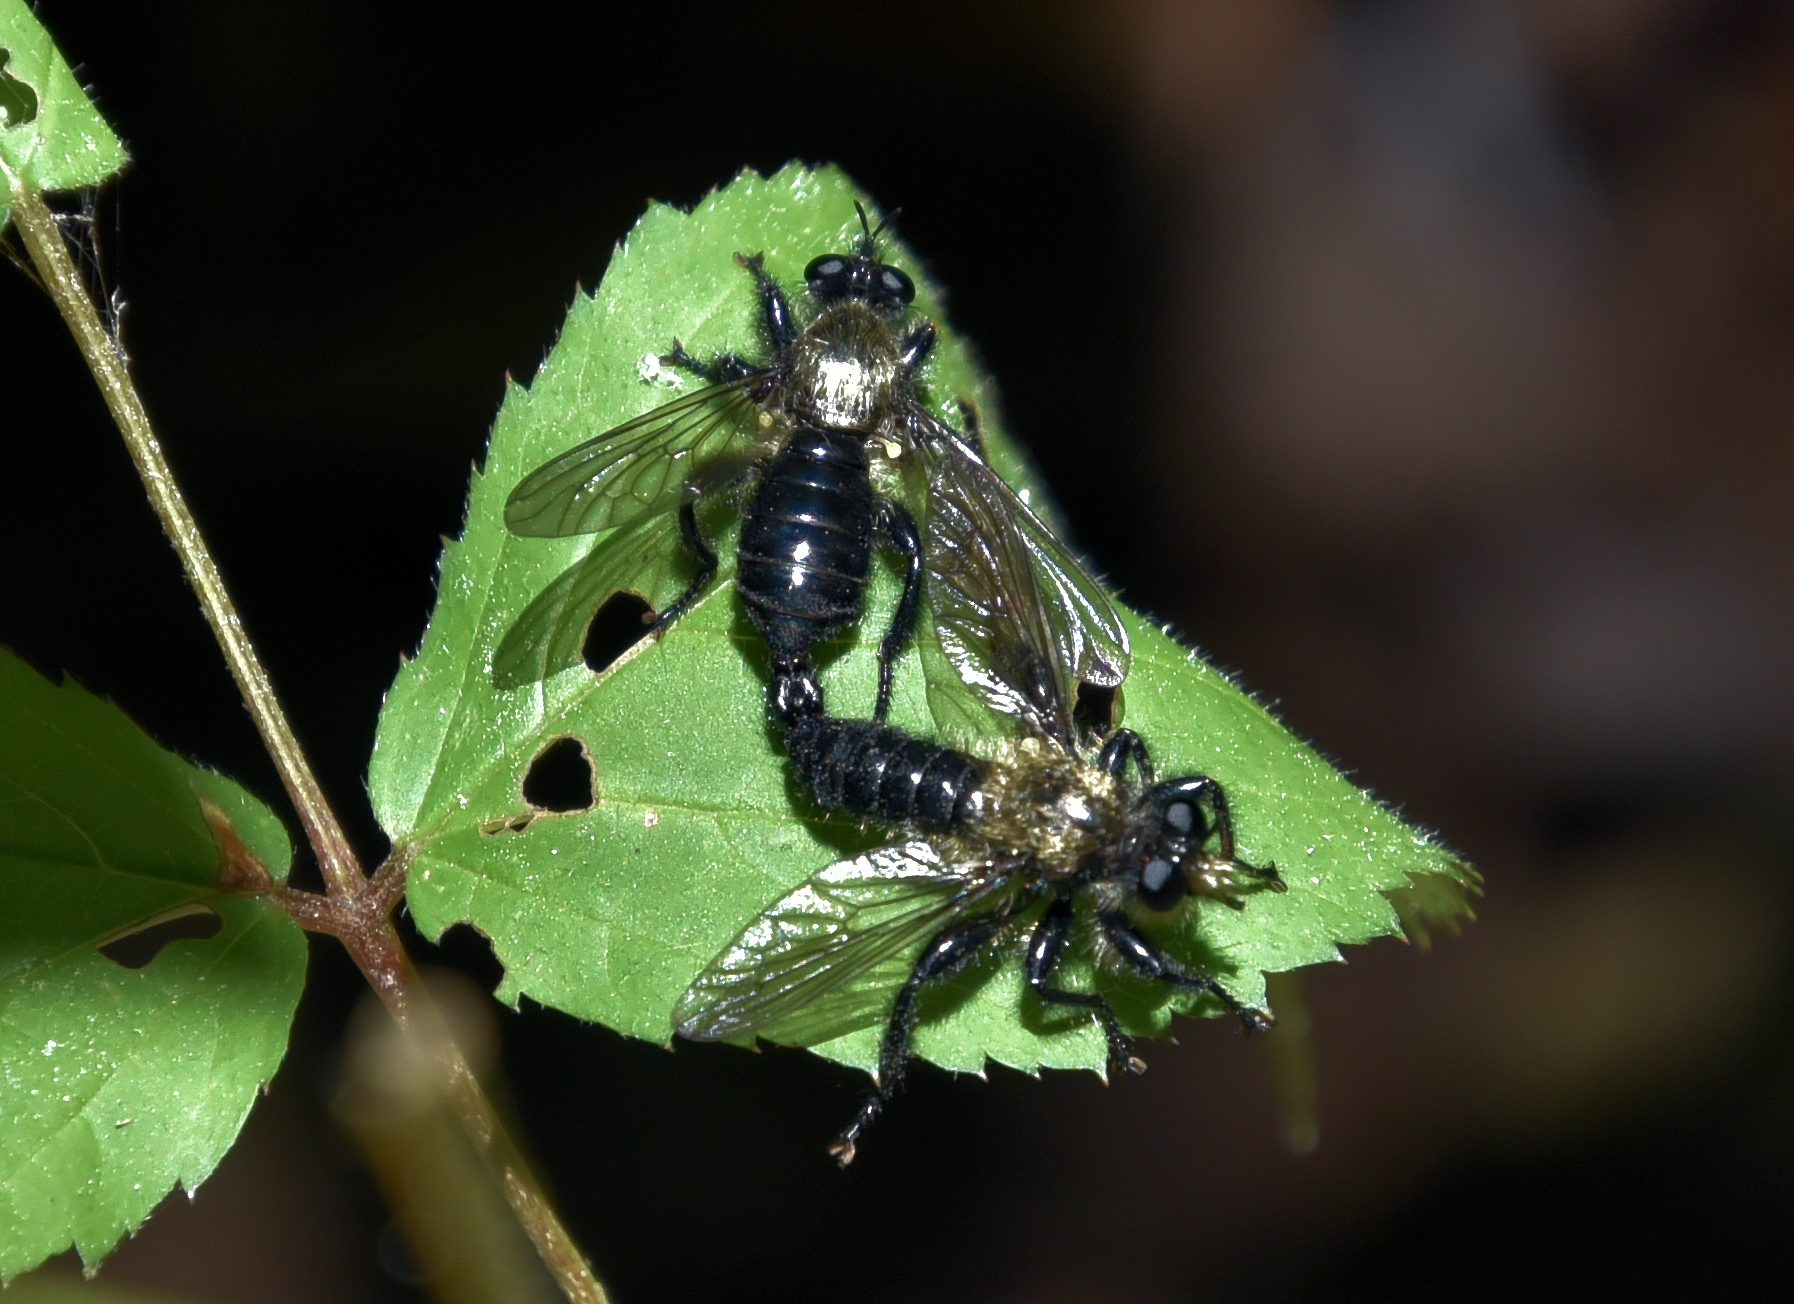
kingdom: Animalia
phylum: Arthropoda
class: Insecta
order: Diptera
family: Asilidae
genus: Laphria
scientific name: Laphria flavicollis
